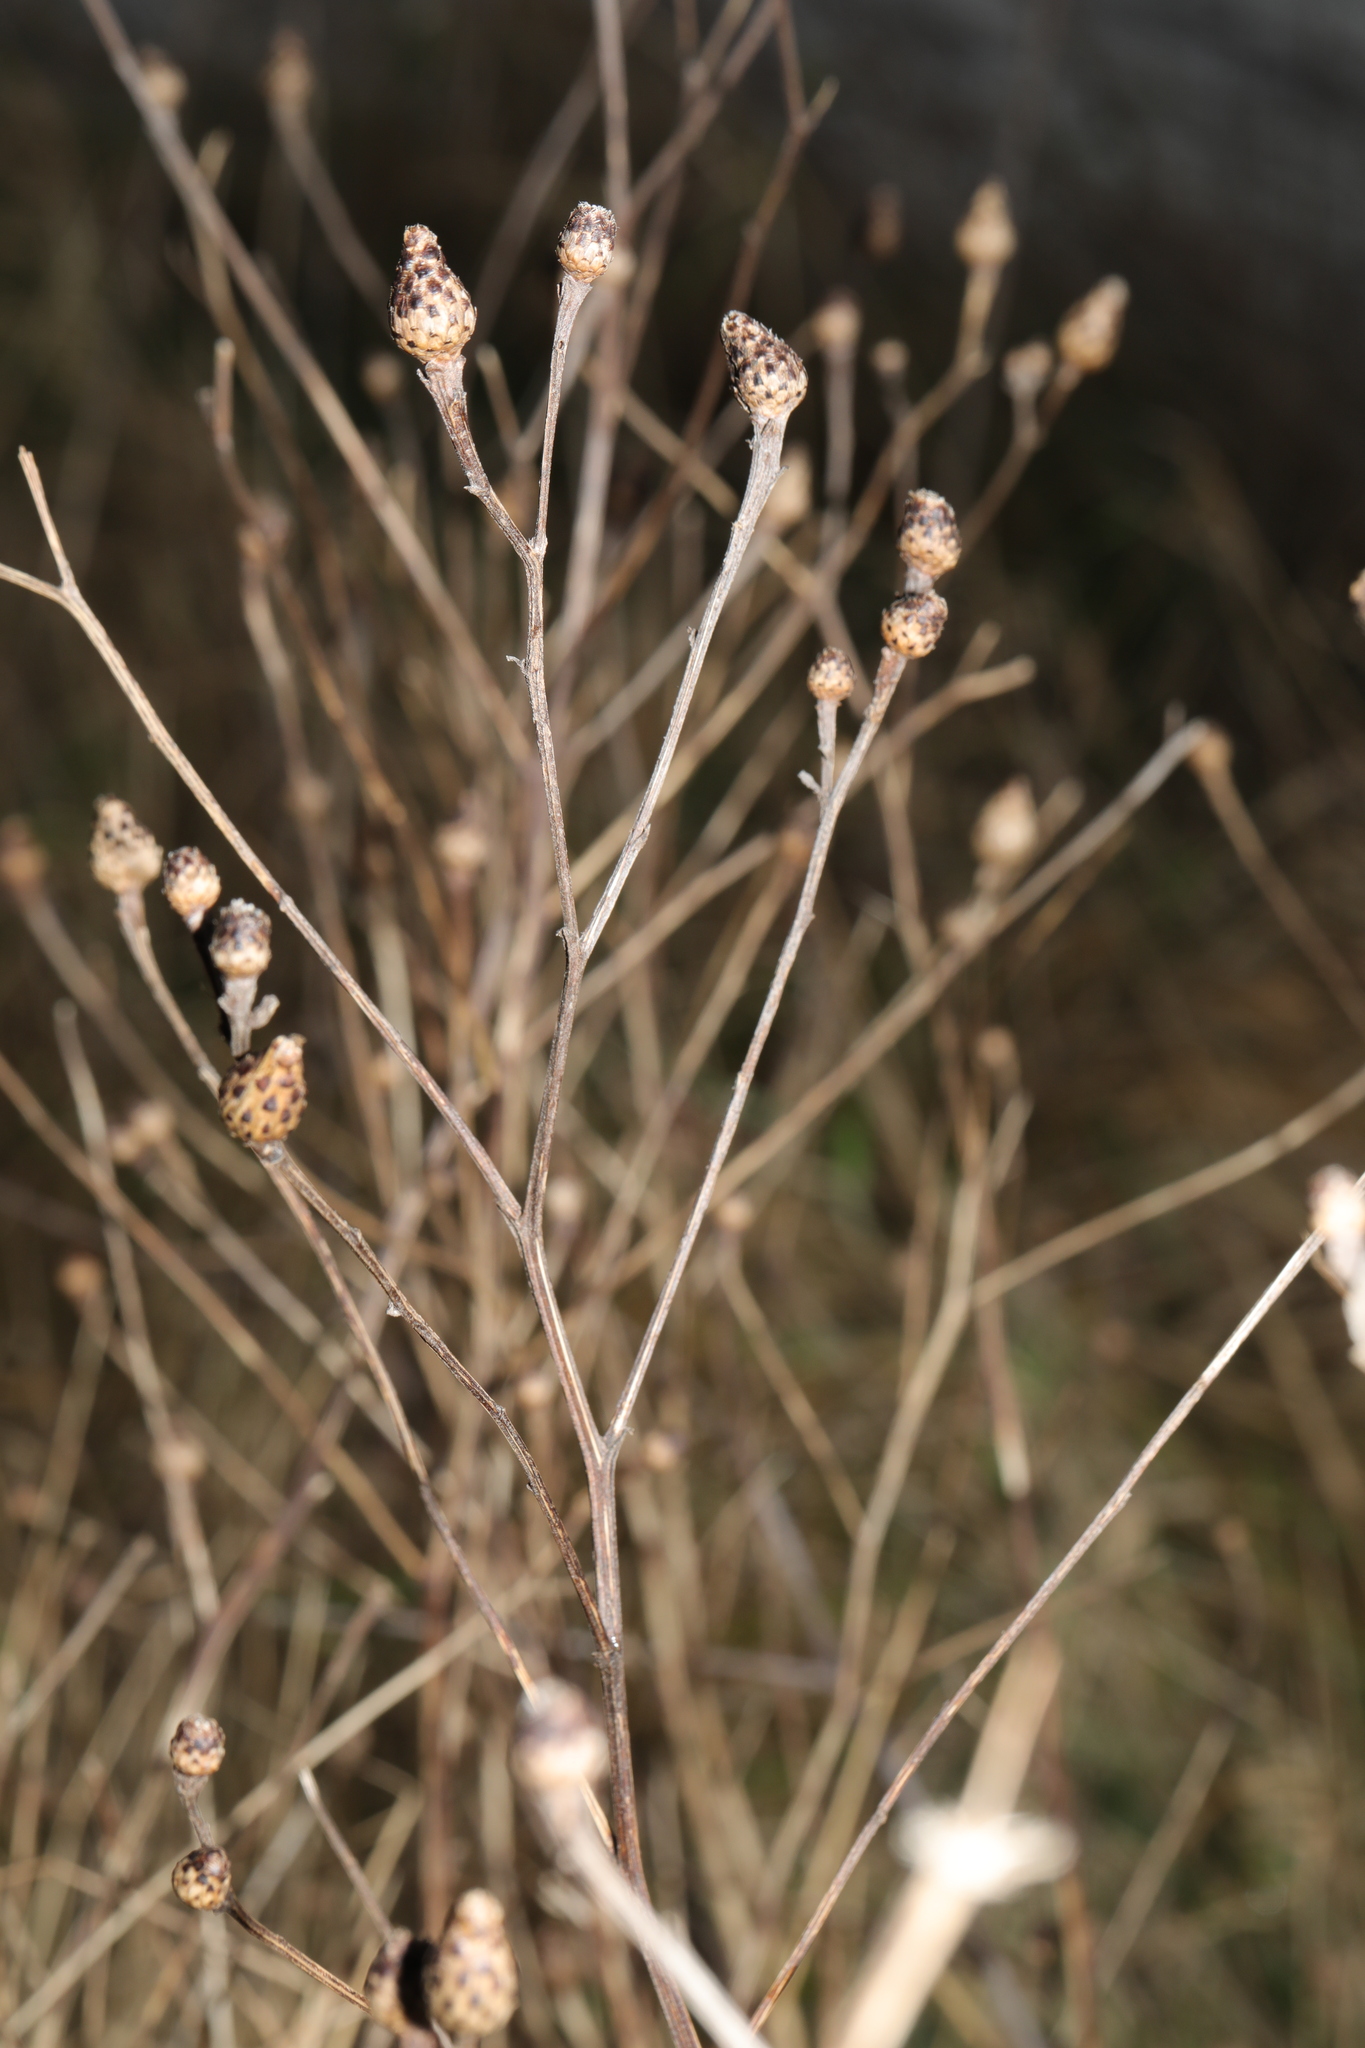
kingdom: Plantae
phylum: Tracheophyta
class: Magnoliopsida
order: Asterales
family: Asteraceae
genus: Centaurea
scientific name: Centaurea nigra
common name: Lesser knapweed
